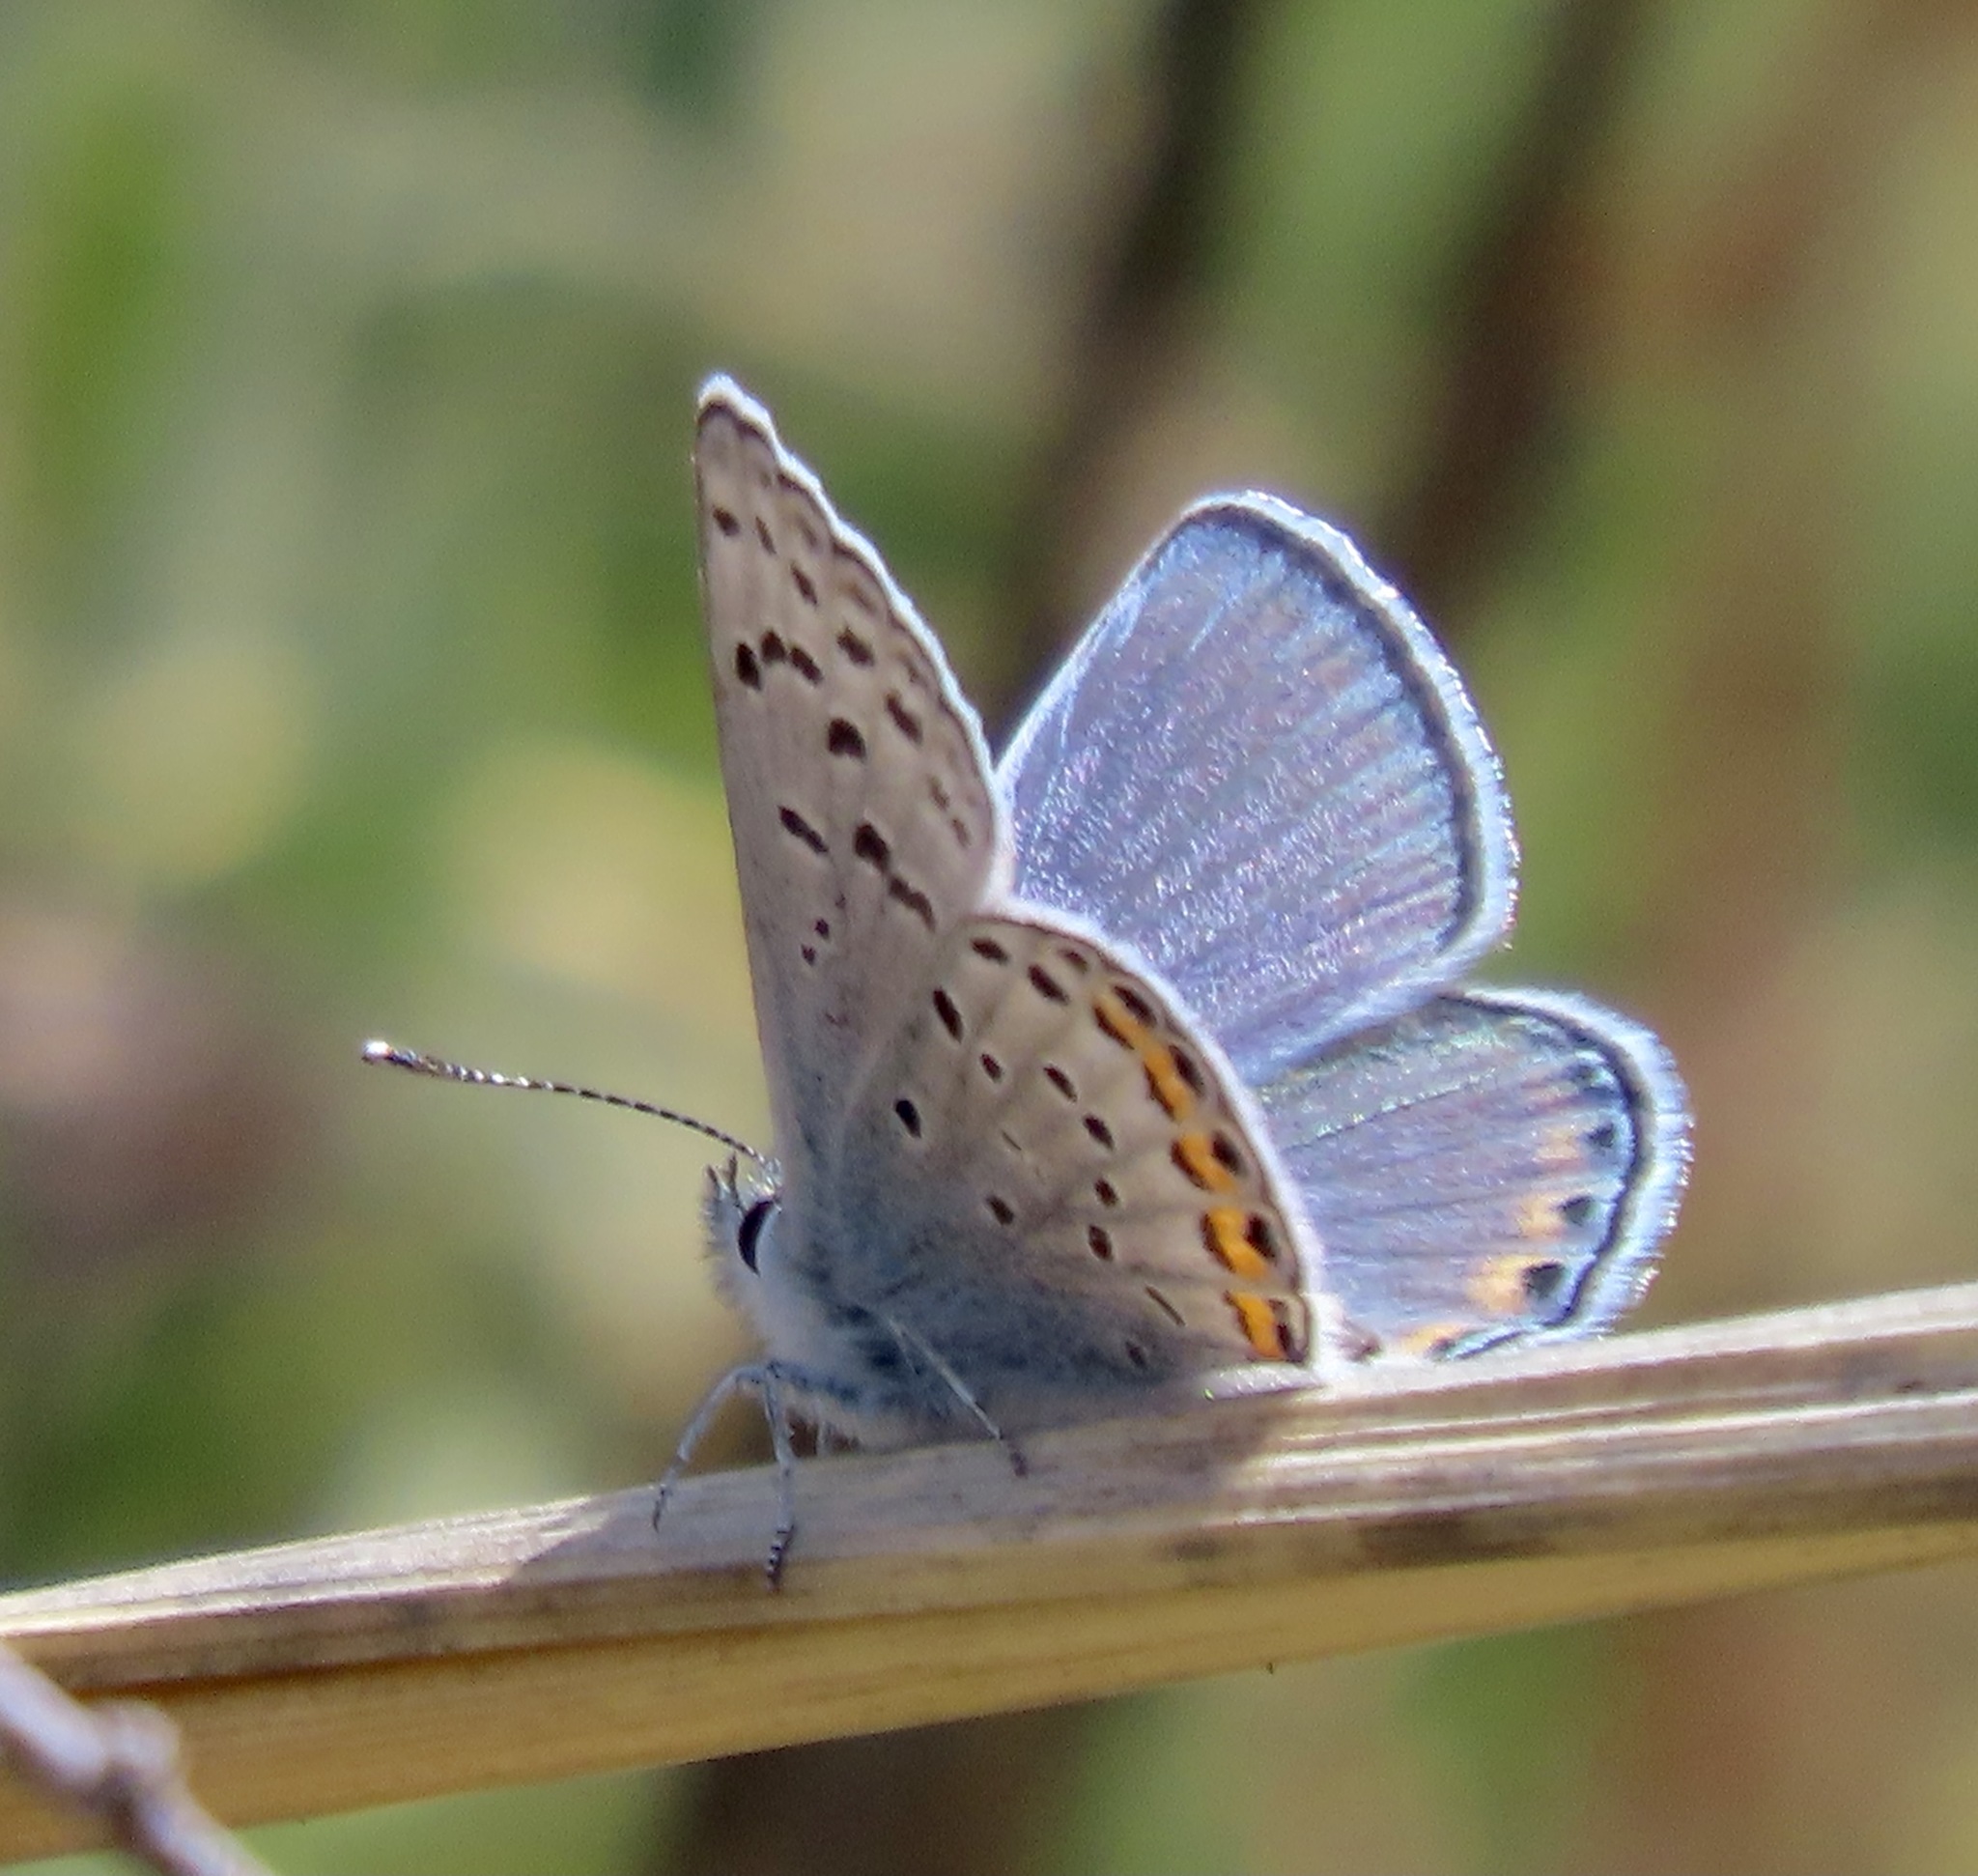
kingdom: Animalia
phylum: Arthropoda
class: Insecta
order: Lepidoptera
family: Lycaenidae
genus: Icaricia
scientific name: Icaricia acmon
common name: Acmon blue
